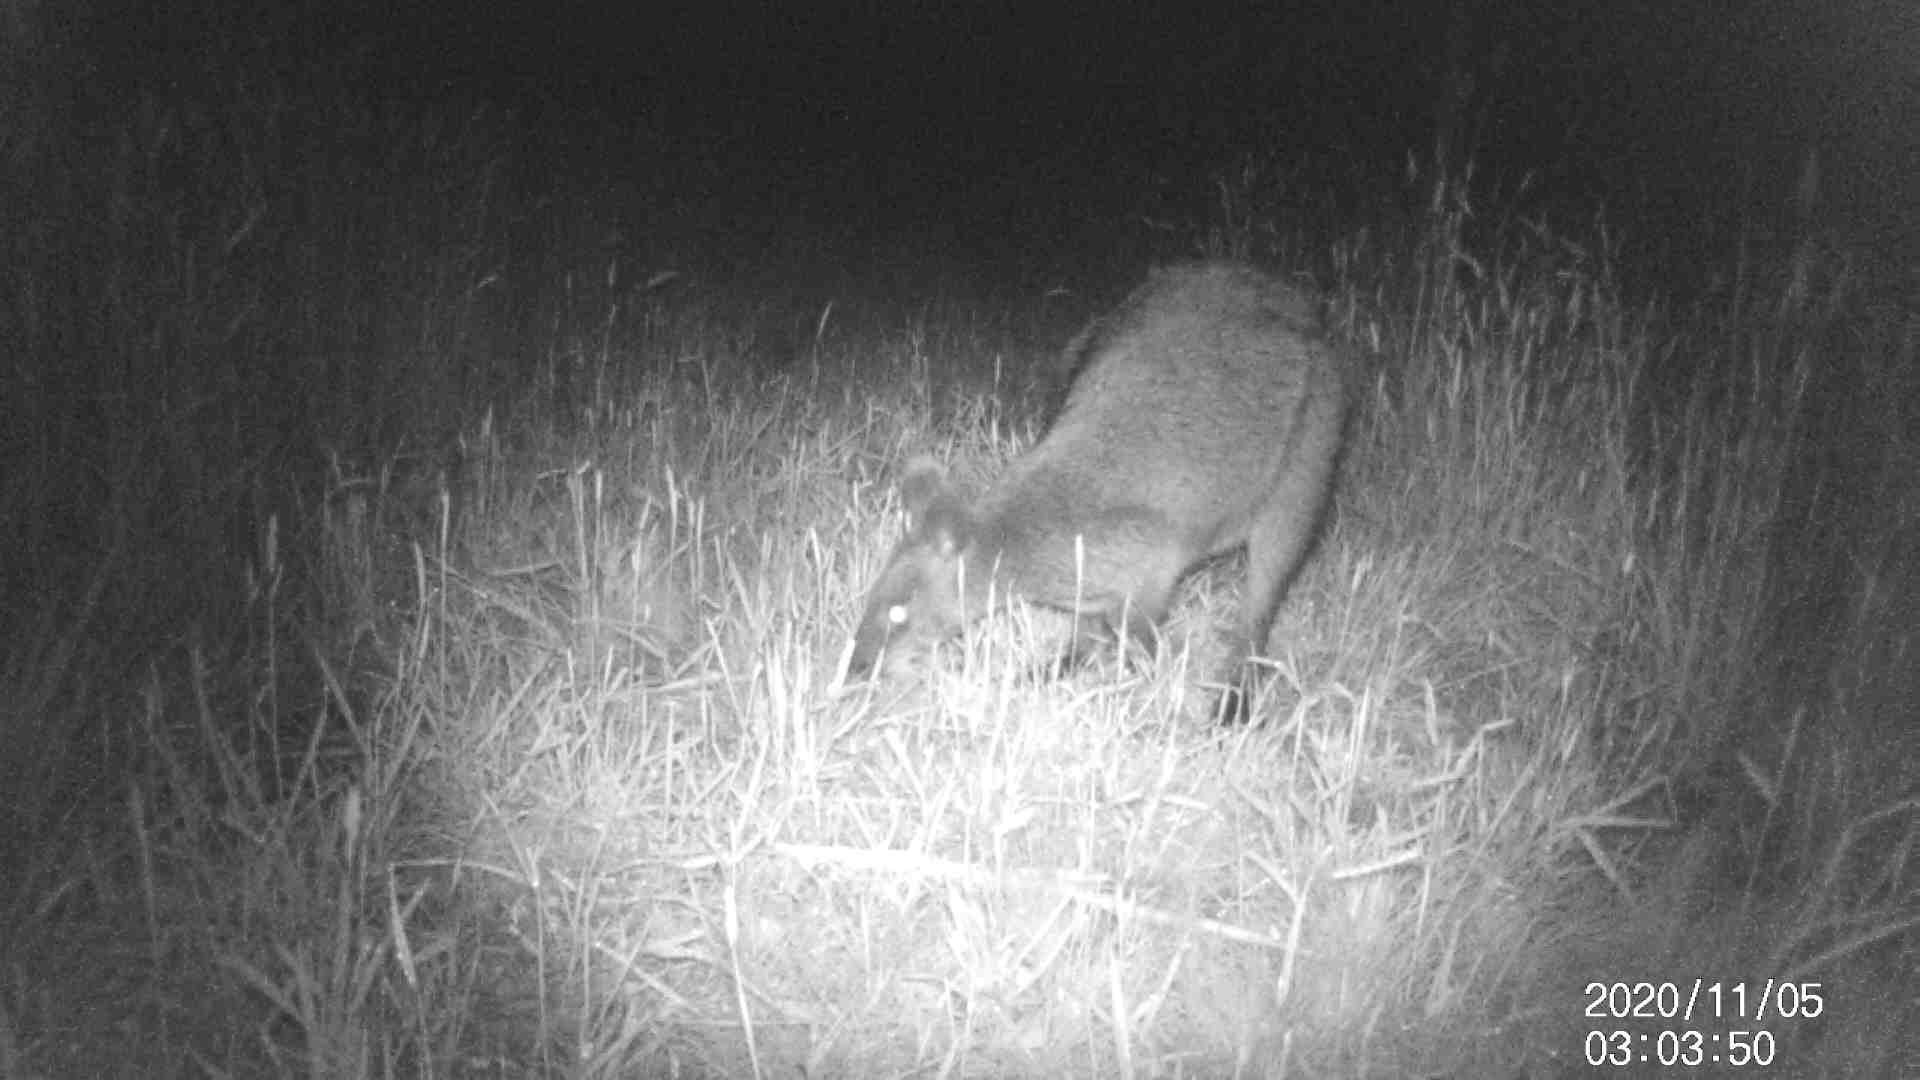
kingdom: Animalia
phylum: Chordata
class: Mammalia
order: Diprotodontia
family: Macropodidae
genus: Wallabia
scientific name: Wallabia bicolor
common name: Swamp wallaby
